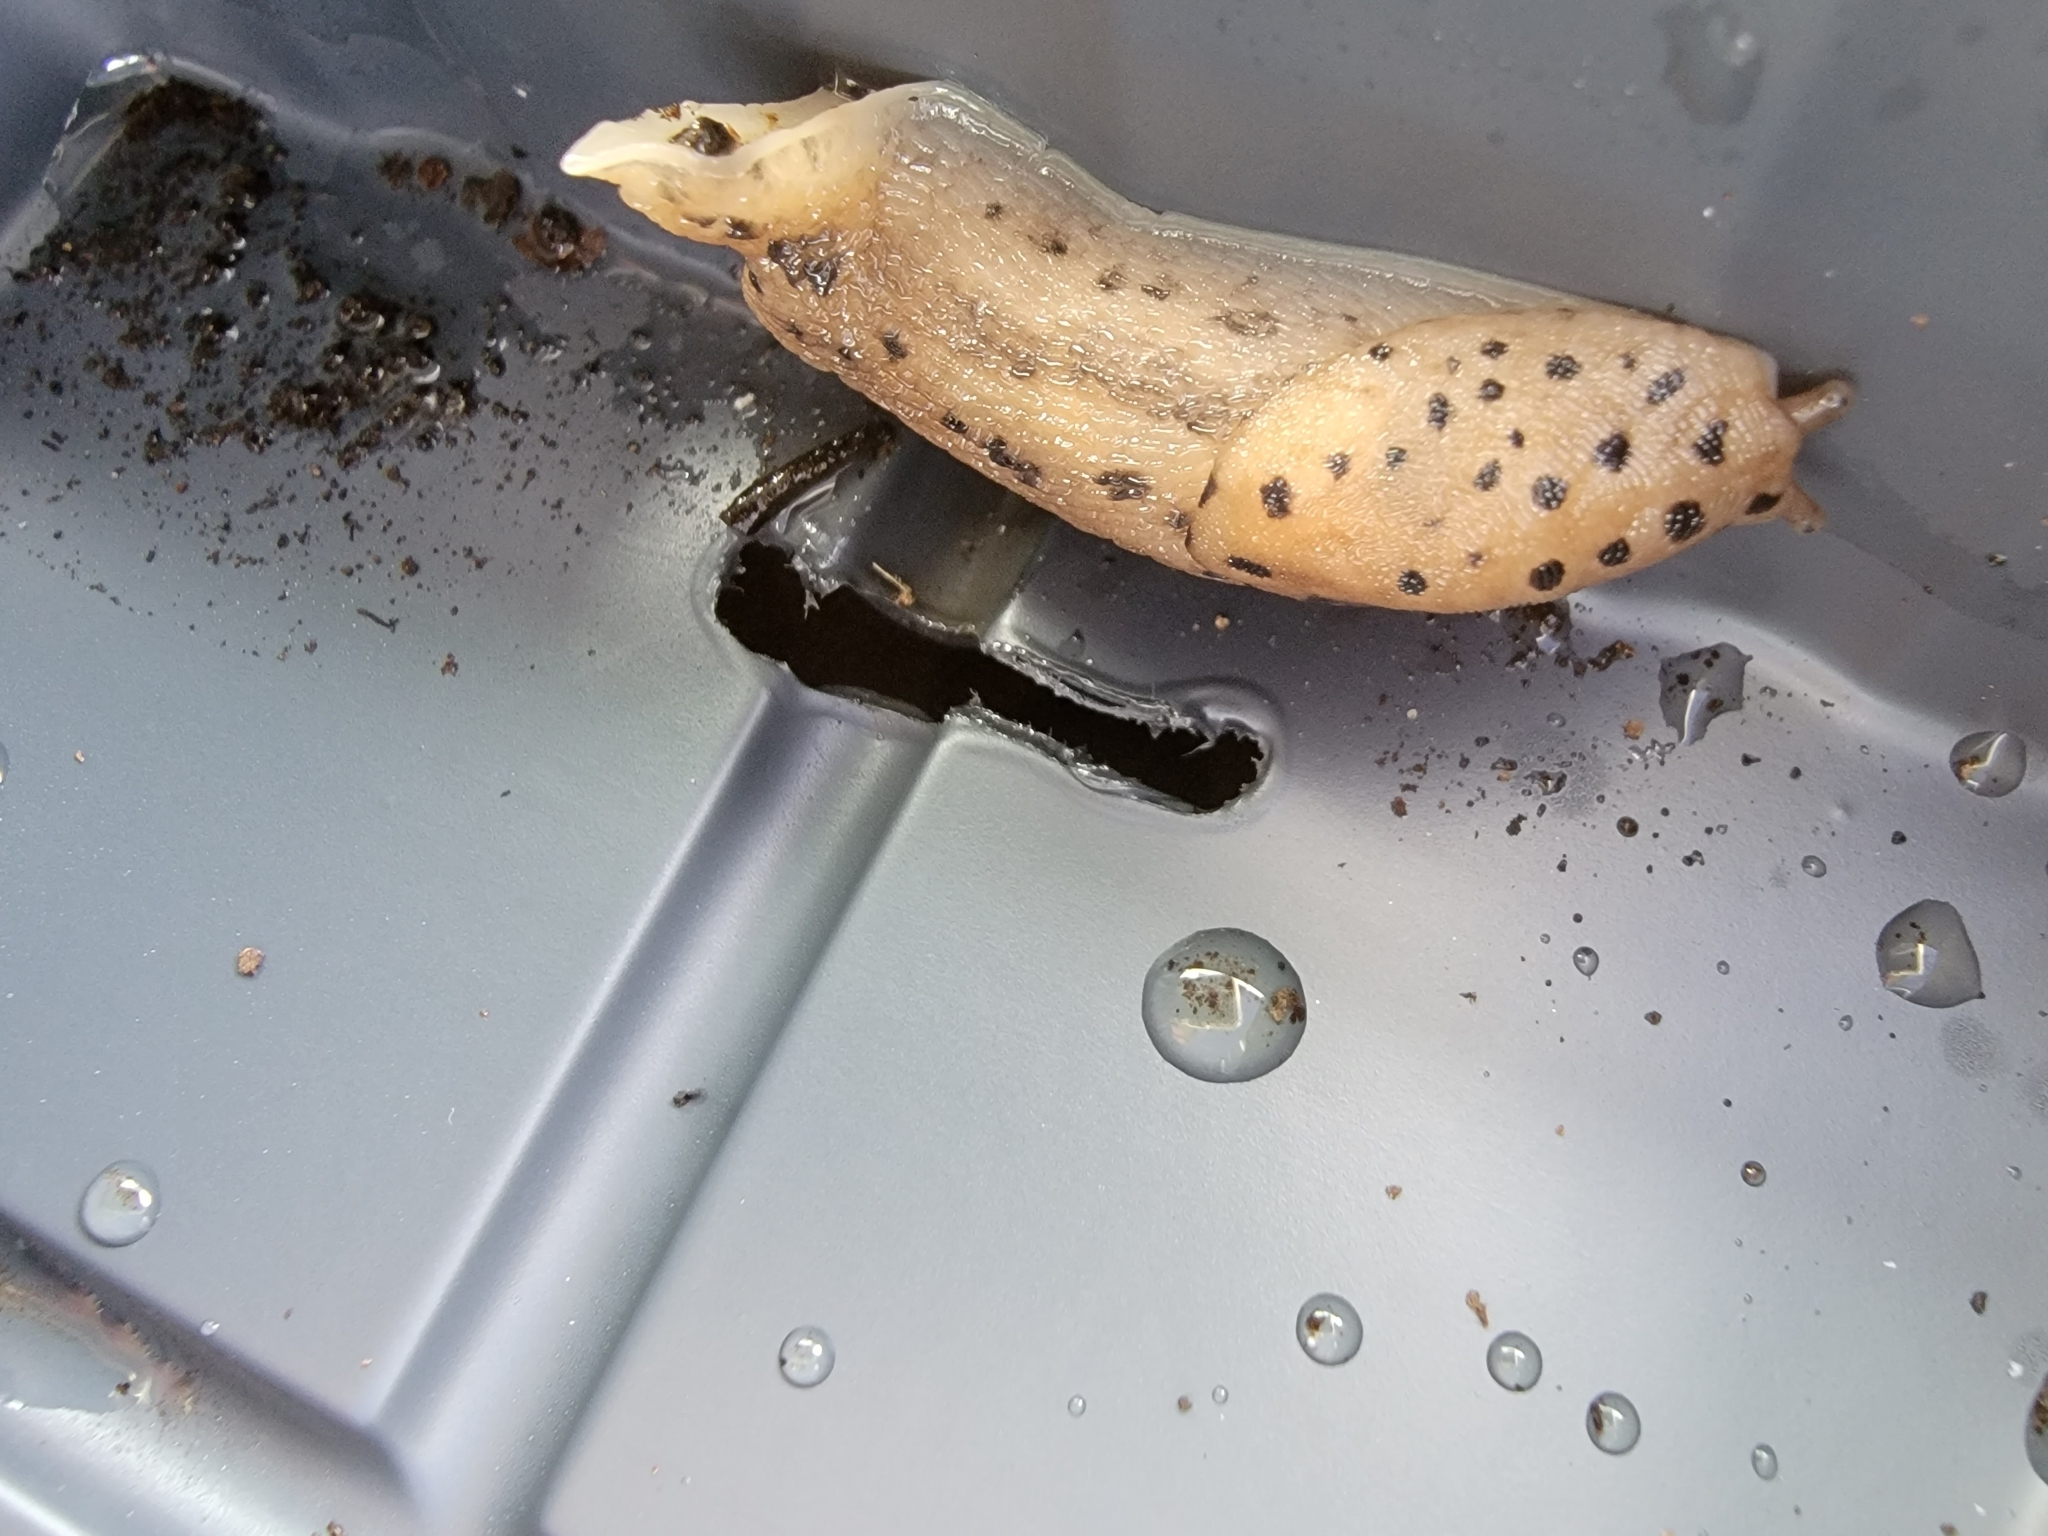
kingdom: Animalia
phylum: Mollusca
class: Gastropoda
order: Stylommatophora
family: Limacidae
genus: Limax
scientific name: Limax maximus
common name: Great grey slug
